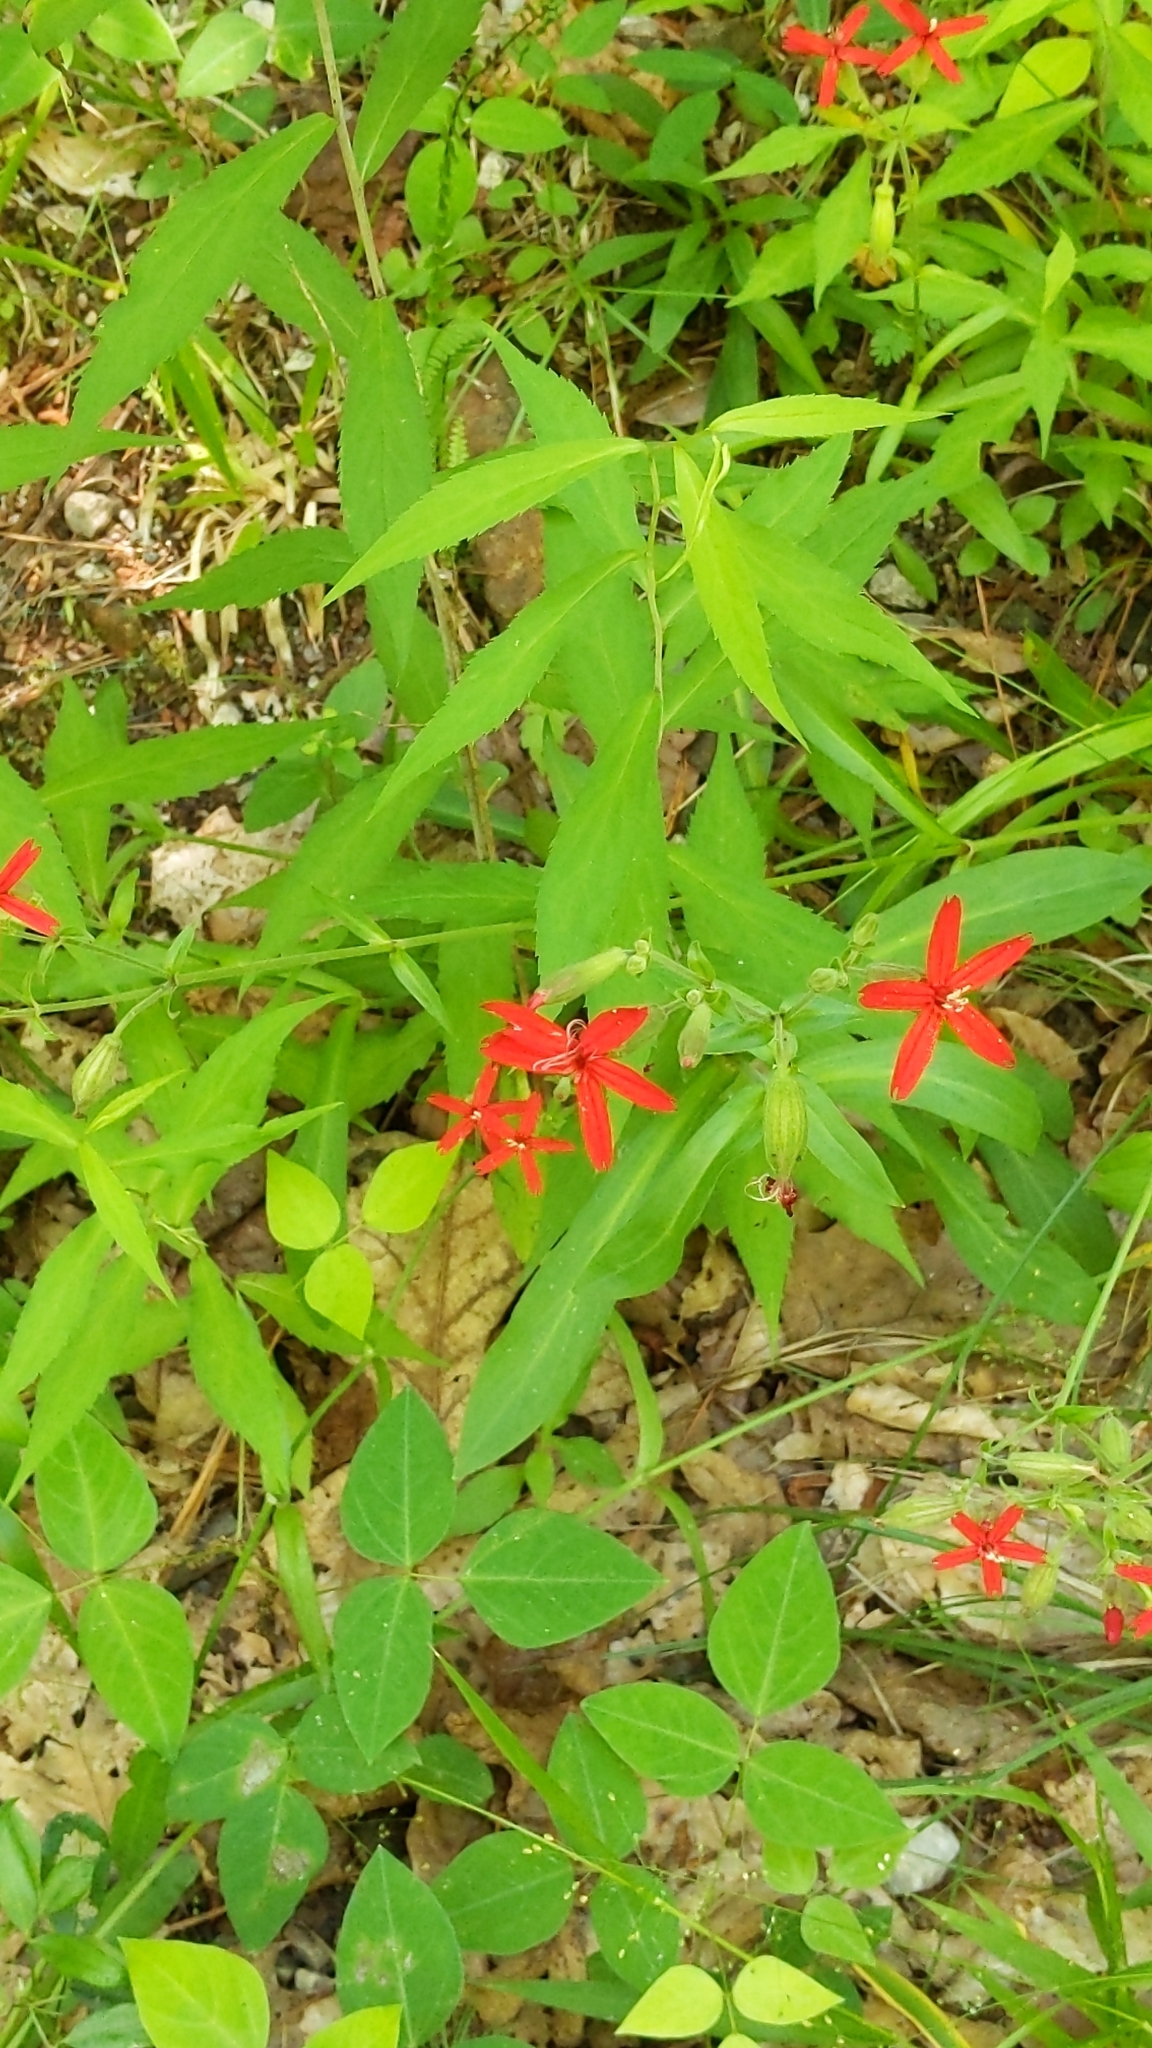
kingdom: Plantae
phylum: Tracheophyta
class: Magnoliopsida
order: Caryophyllales
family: Caryophyllaceae
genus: Silene
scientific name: Silene virginica
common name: Fire-pink
